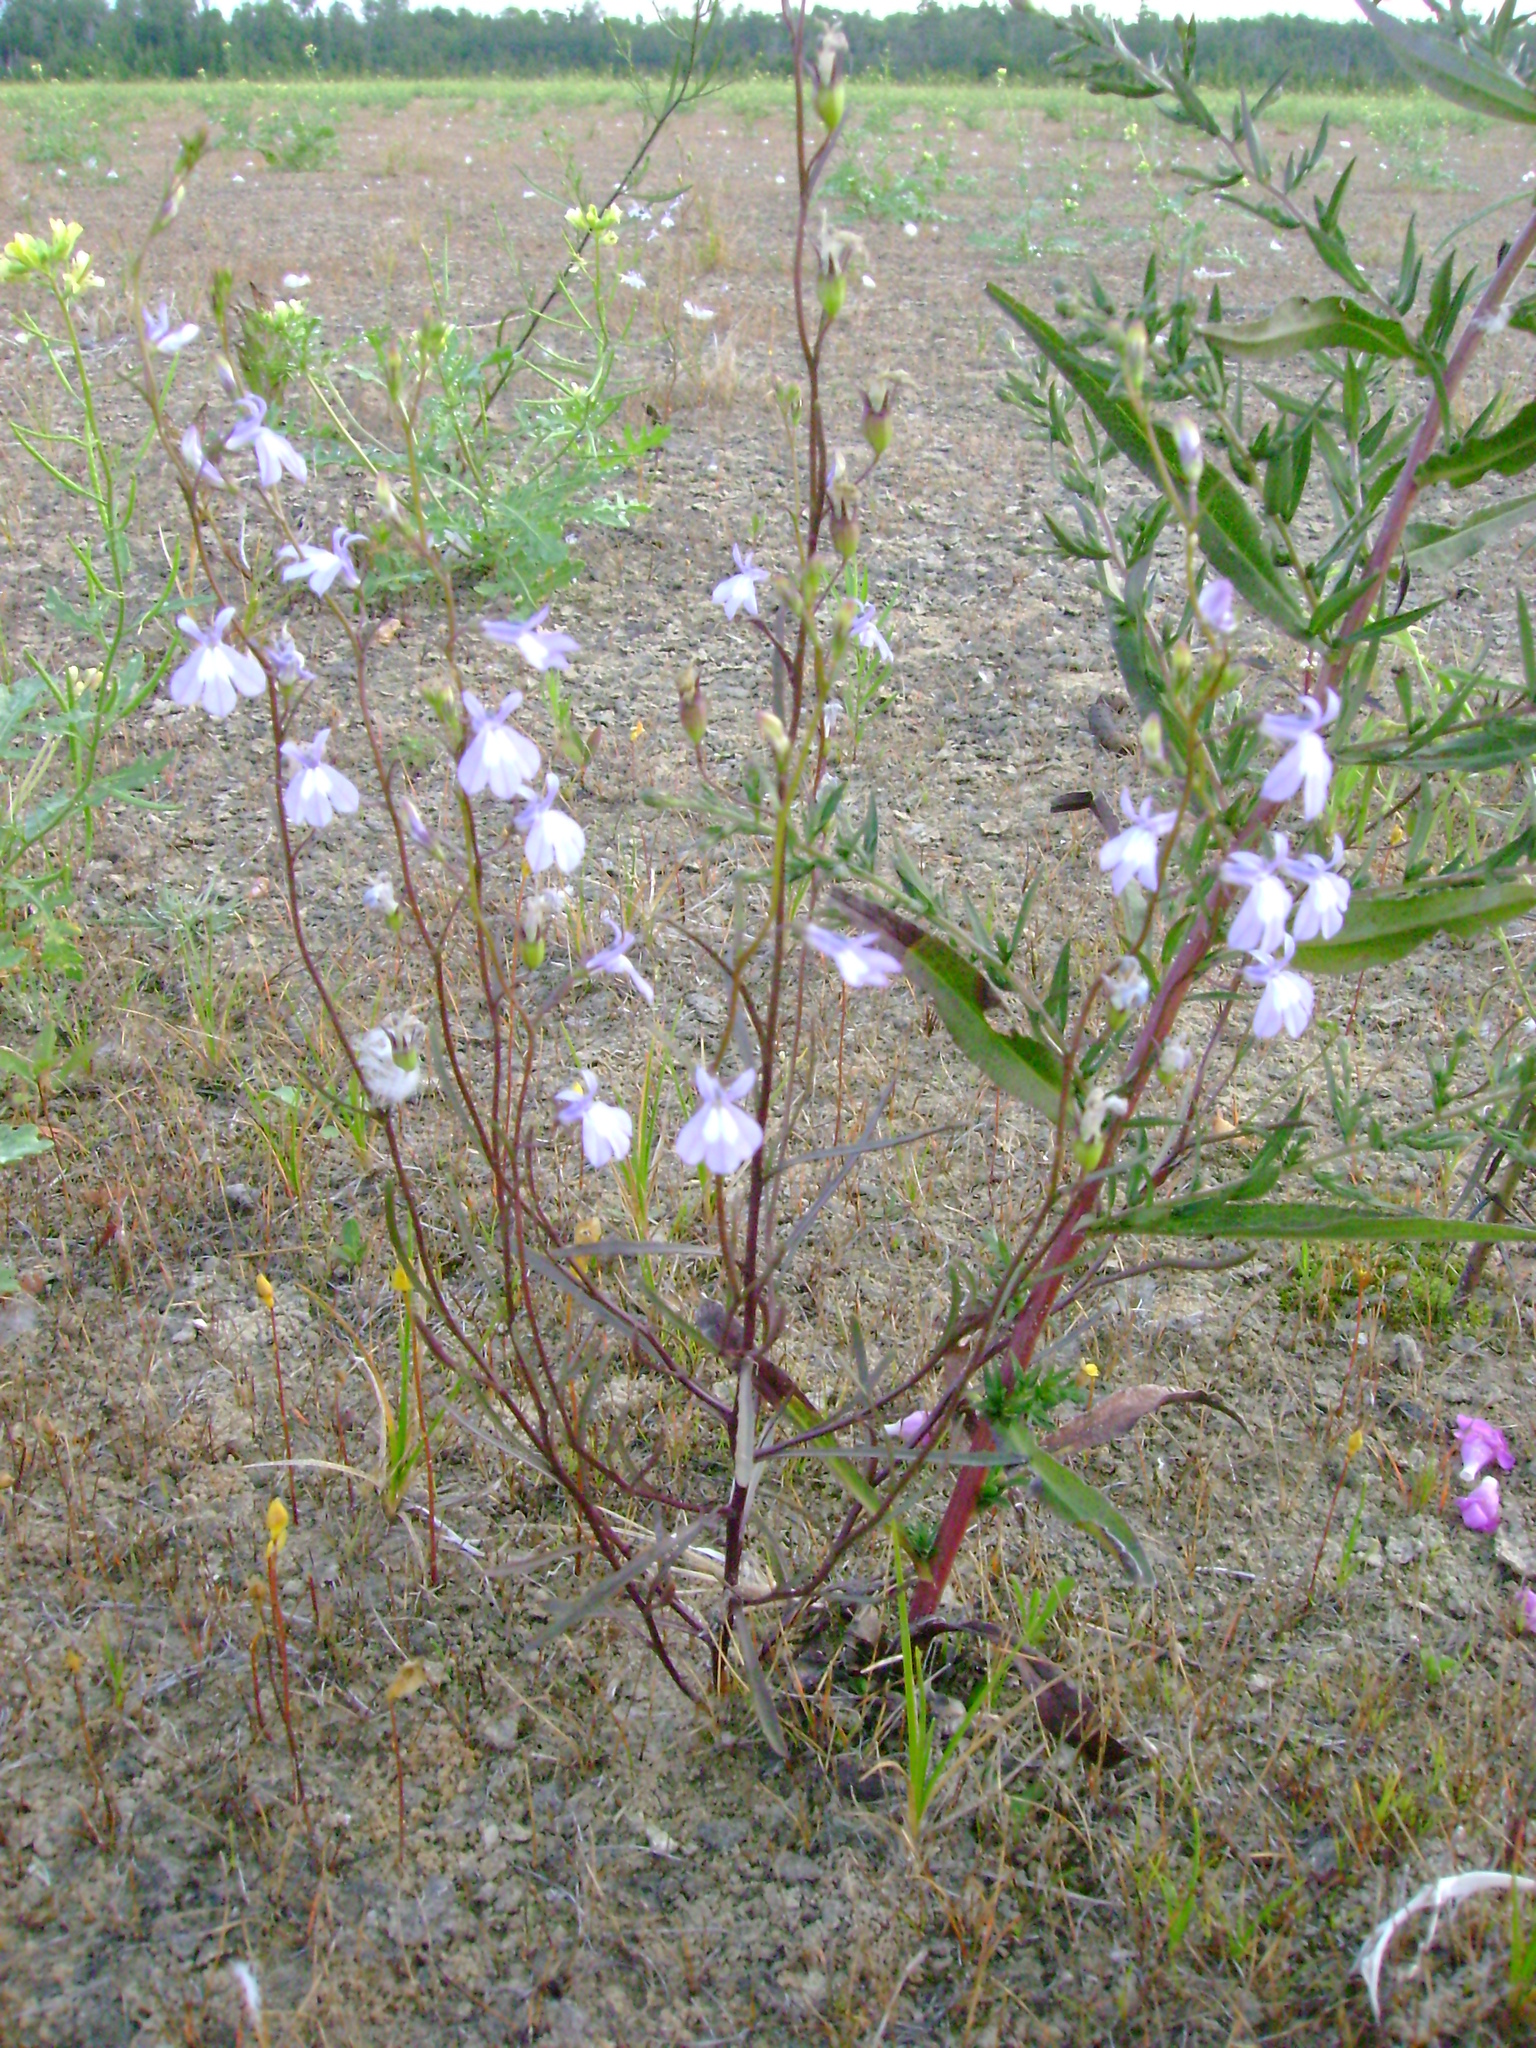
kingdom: Plantae
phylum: Tracheophyta
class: Magnoliopsida
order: Asterales
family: Campanulaceae
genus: Lobelia
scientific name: Lobelia kalmii
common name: Kalm's lobelia
